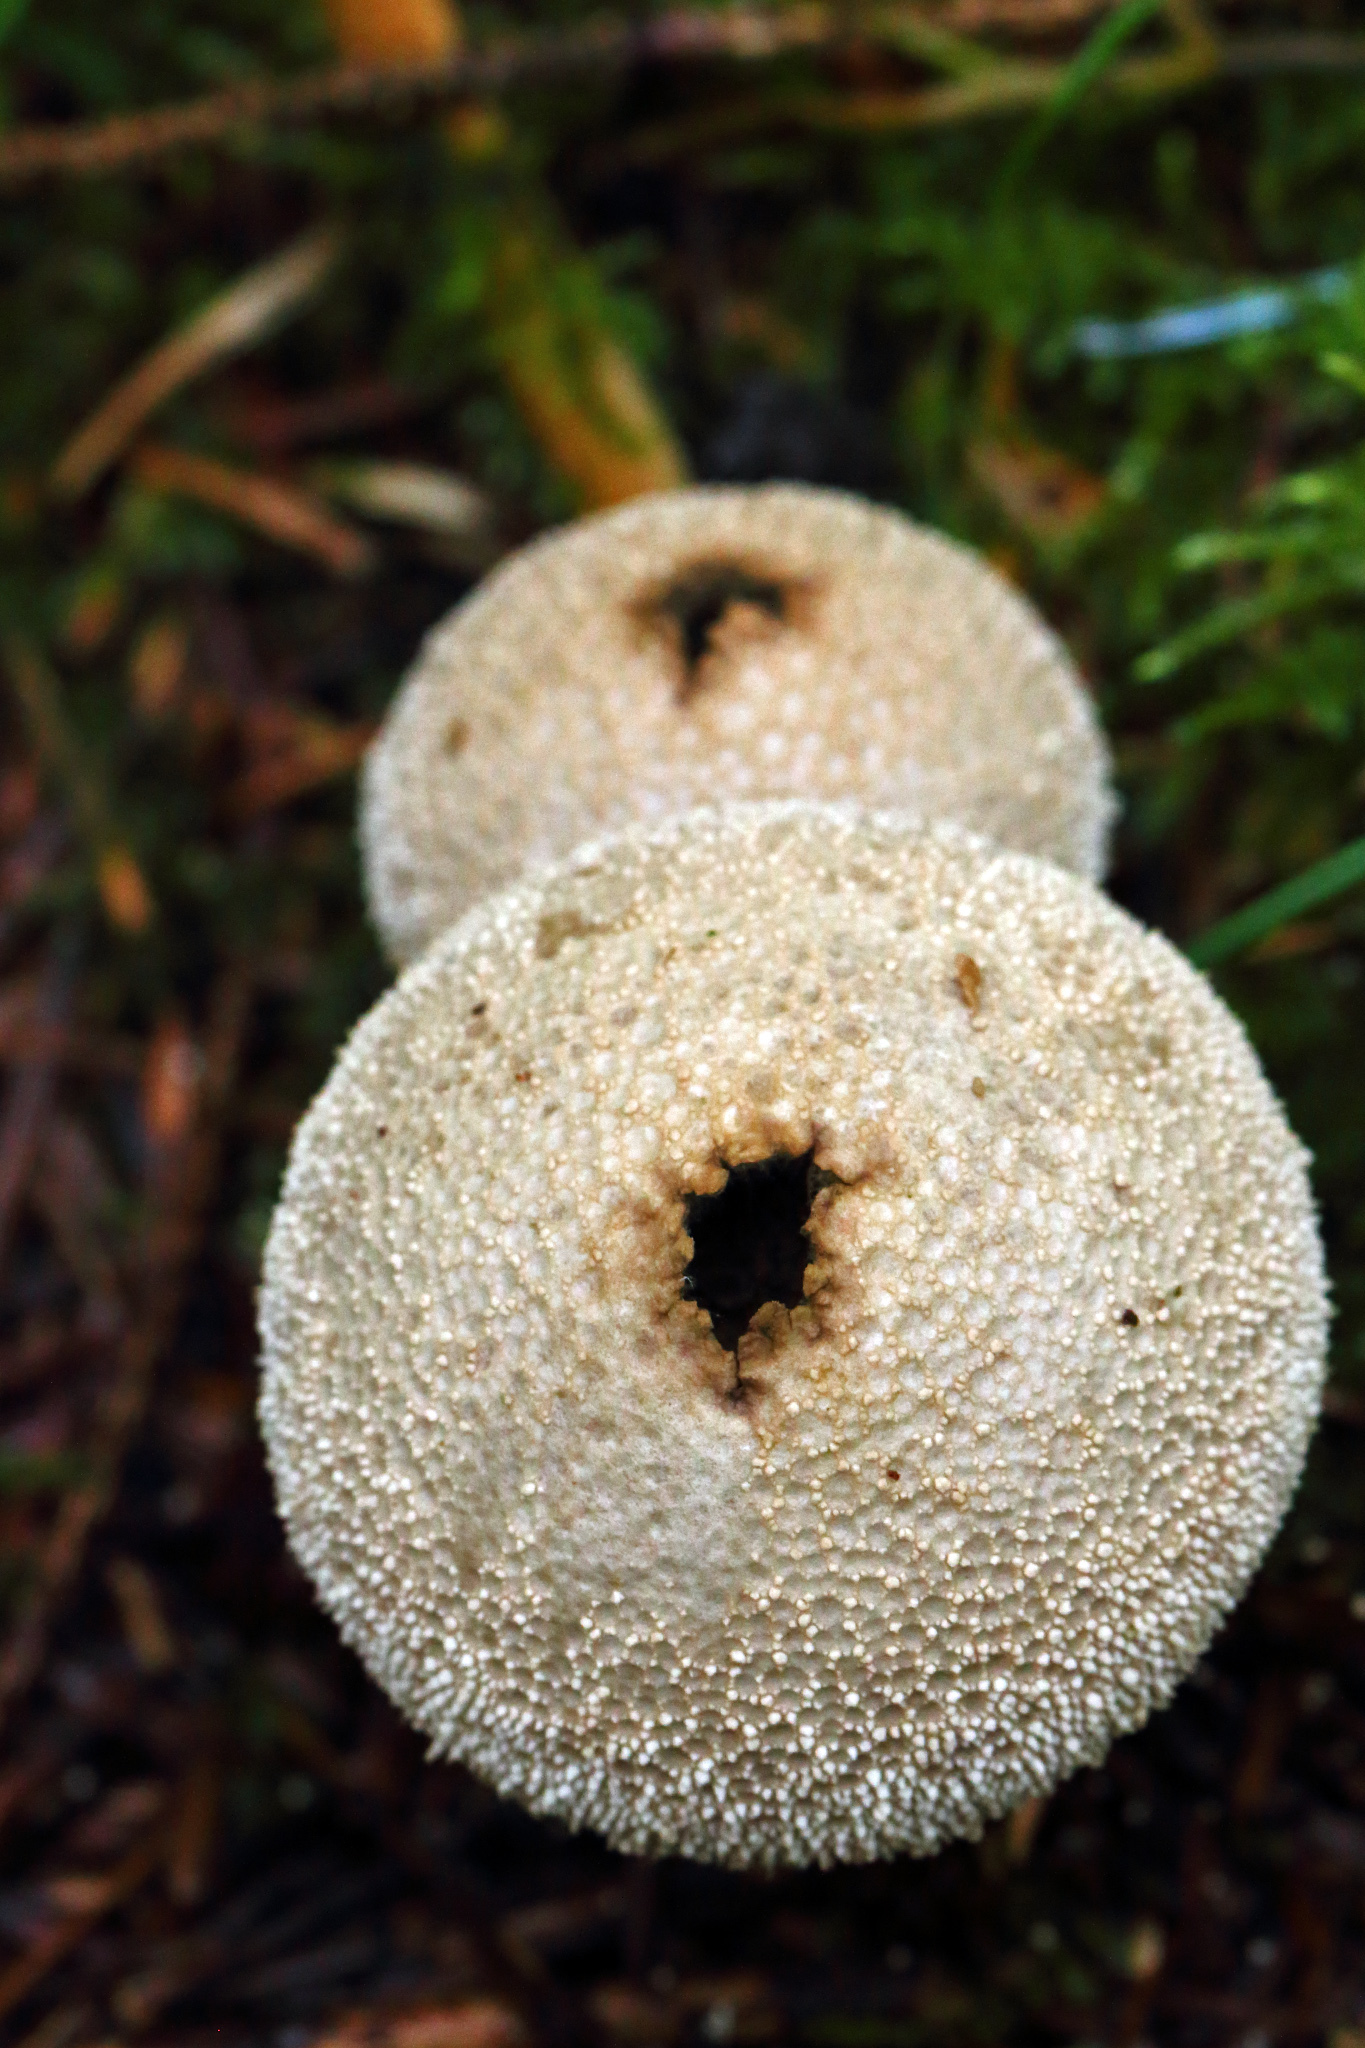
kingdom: Fungi
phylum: Basidiomycota
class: Agaricomycetes
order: Agaricales
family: Lycoperdaceae
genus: Lycoperdon
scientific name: Lycoperdon perlatum
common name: Common puffball
